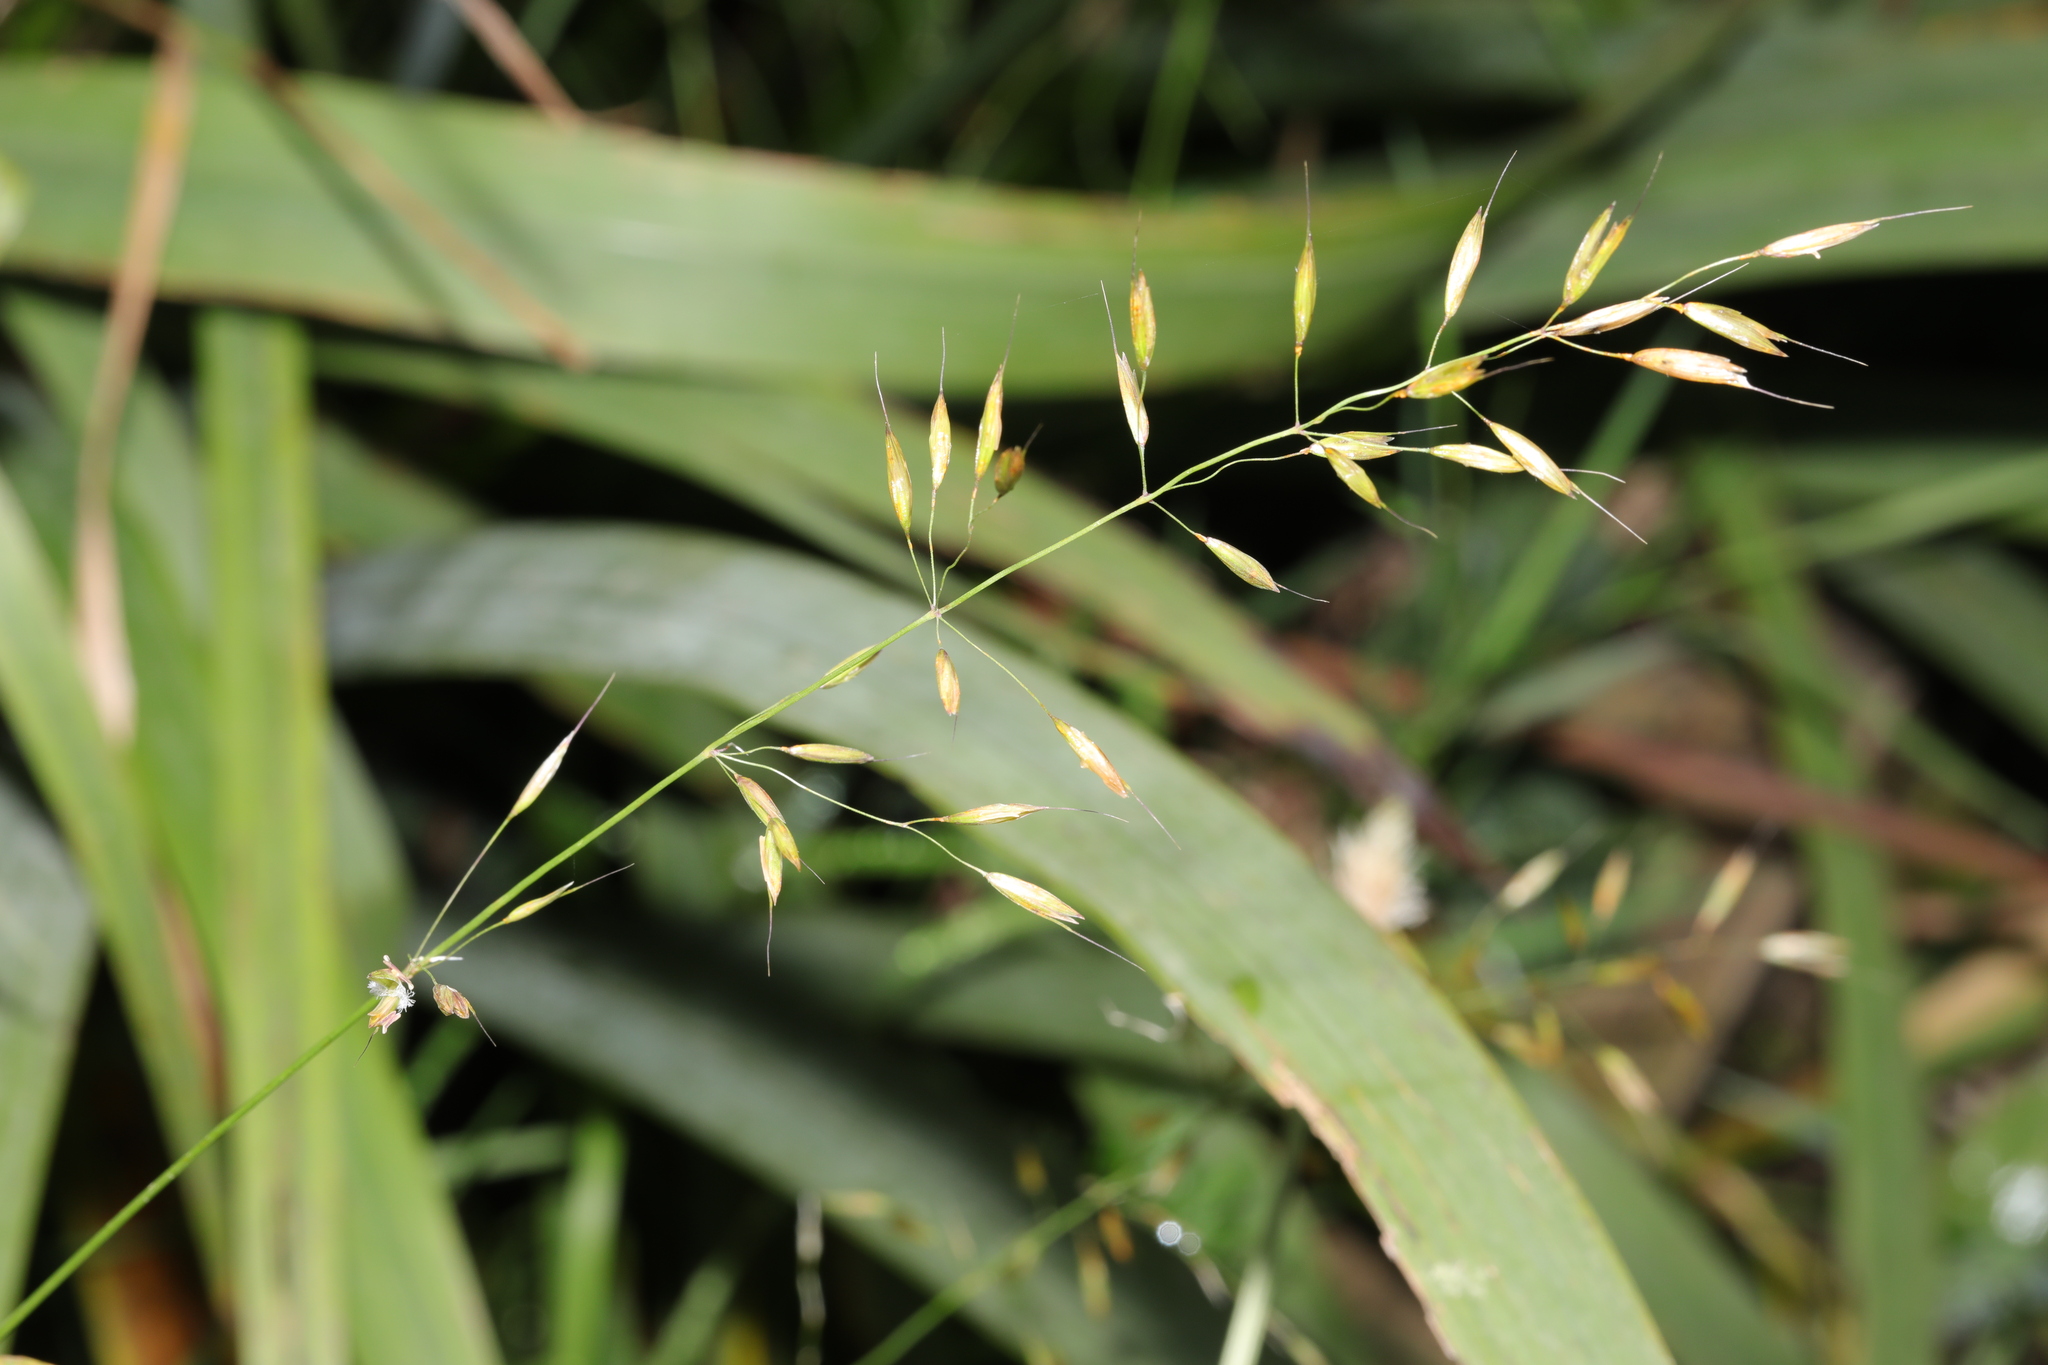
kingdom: Plantae
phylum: Tracheophyta
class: Liliopsida
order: Poales
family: Poaceae
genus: Arrhenatherum
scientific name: Arrhenatherum elatius
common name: Tall oatgrass
